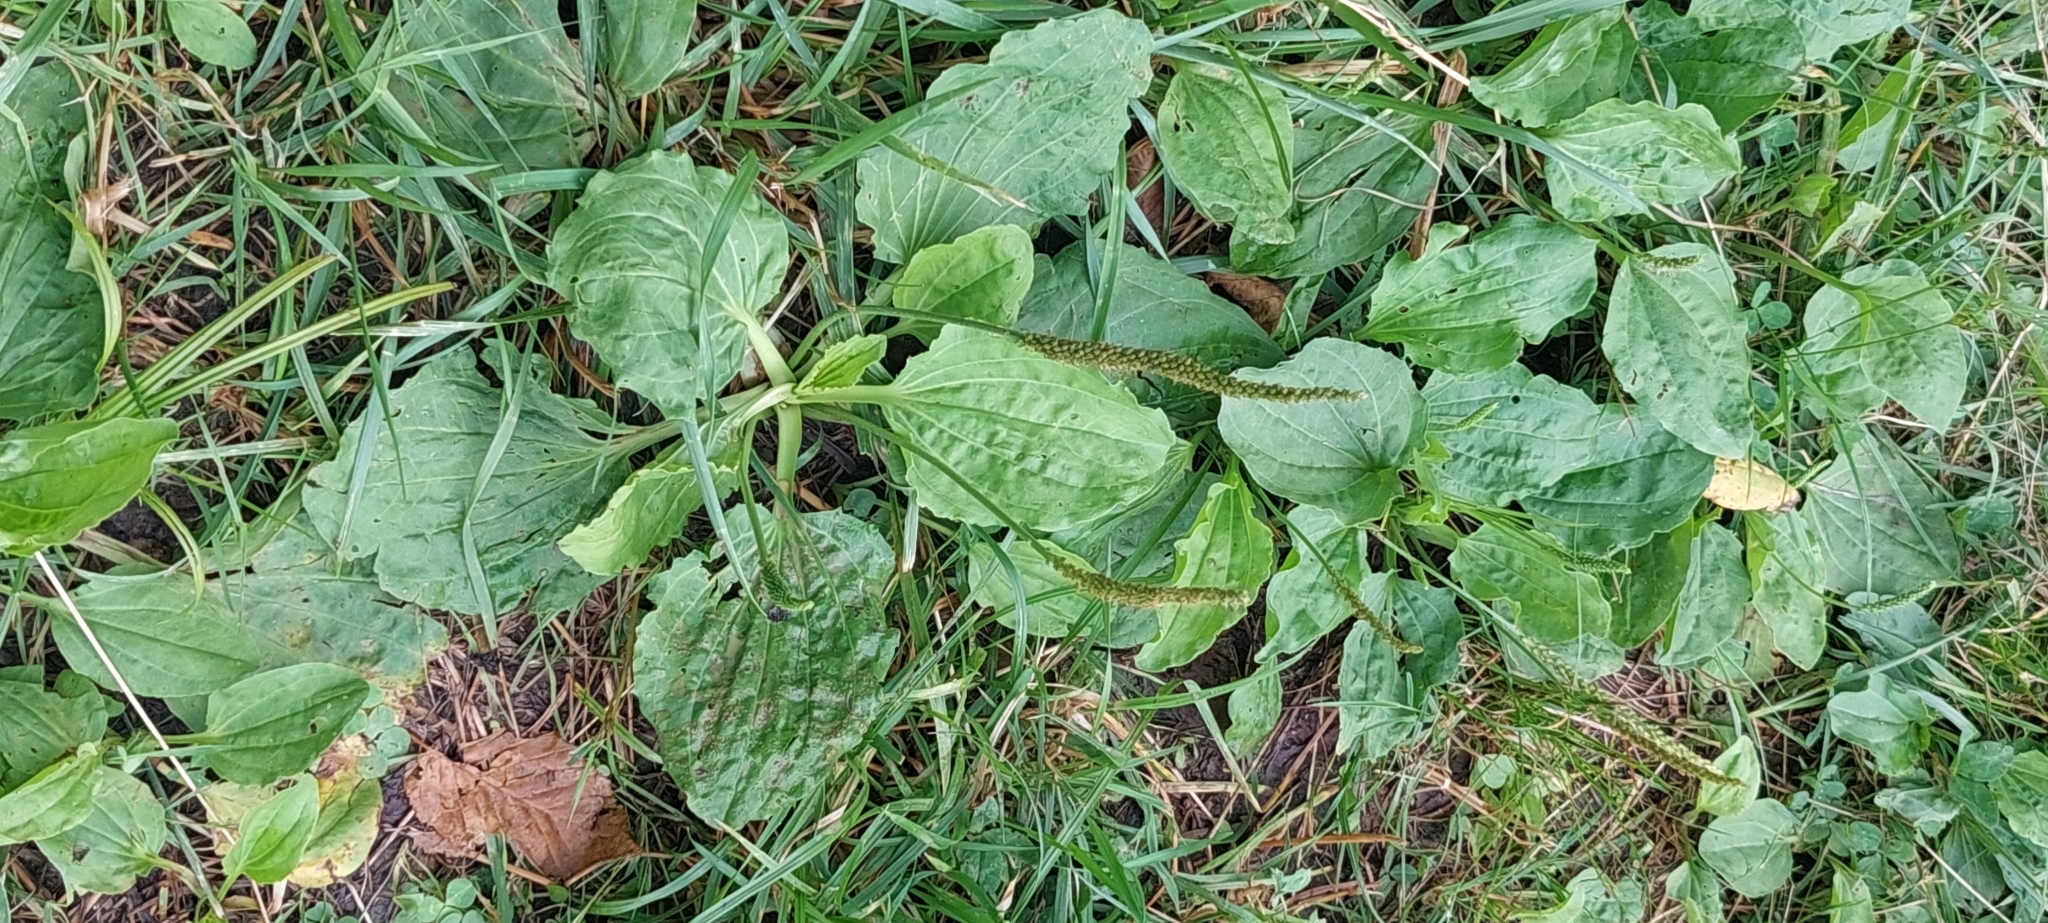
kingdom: Plantae
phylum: Tracheophyta
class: Magnoliopsida
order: Lamiales
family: Plantaginaceae
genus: Plantago
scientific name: Plantago major
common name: Common plantain
